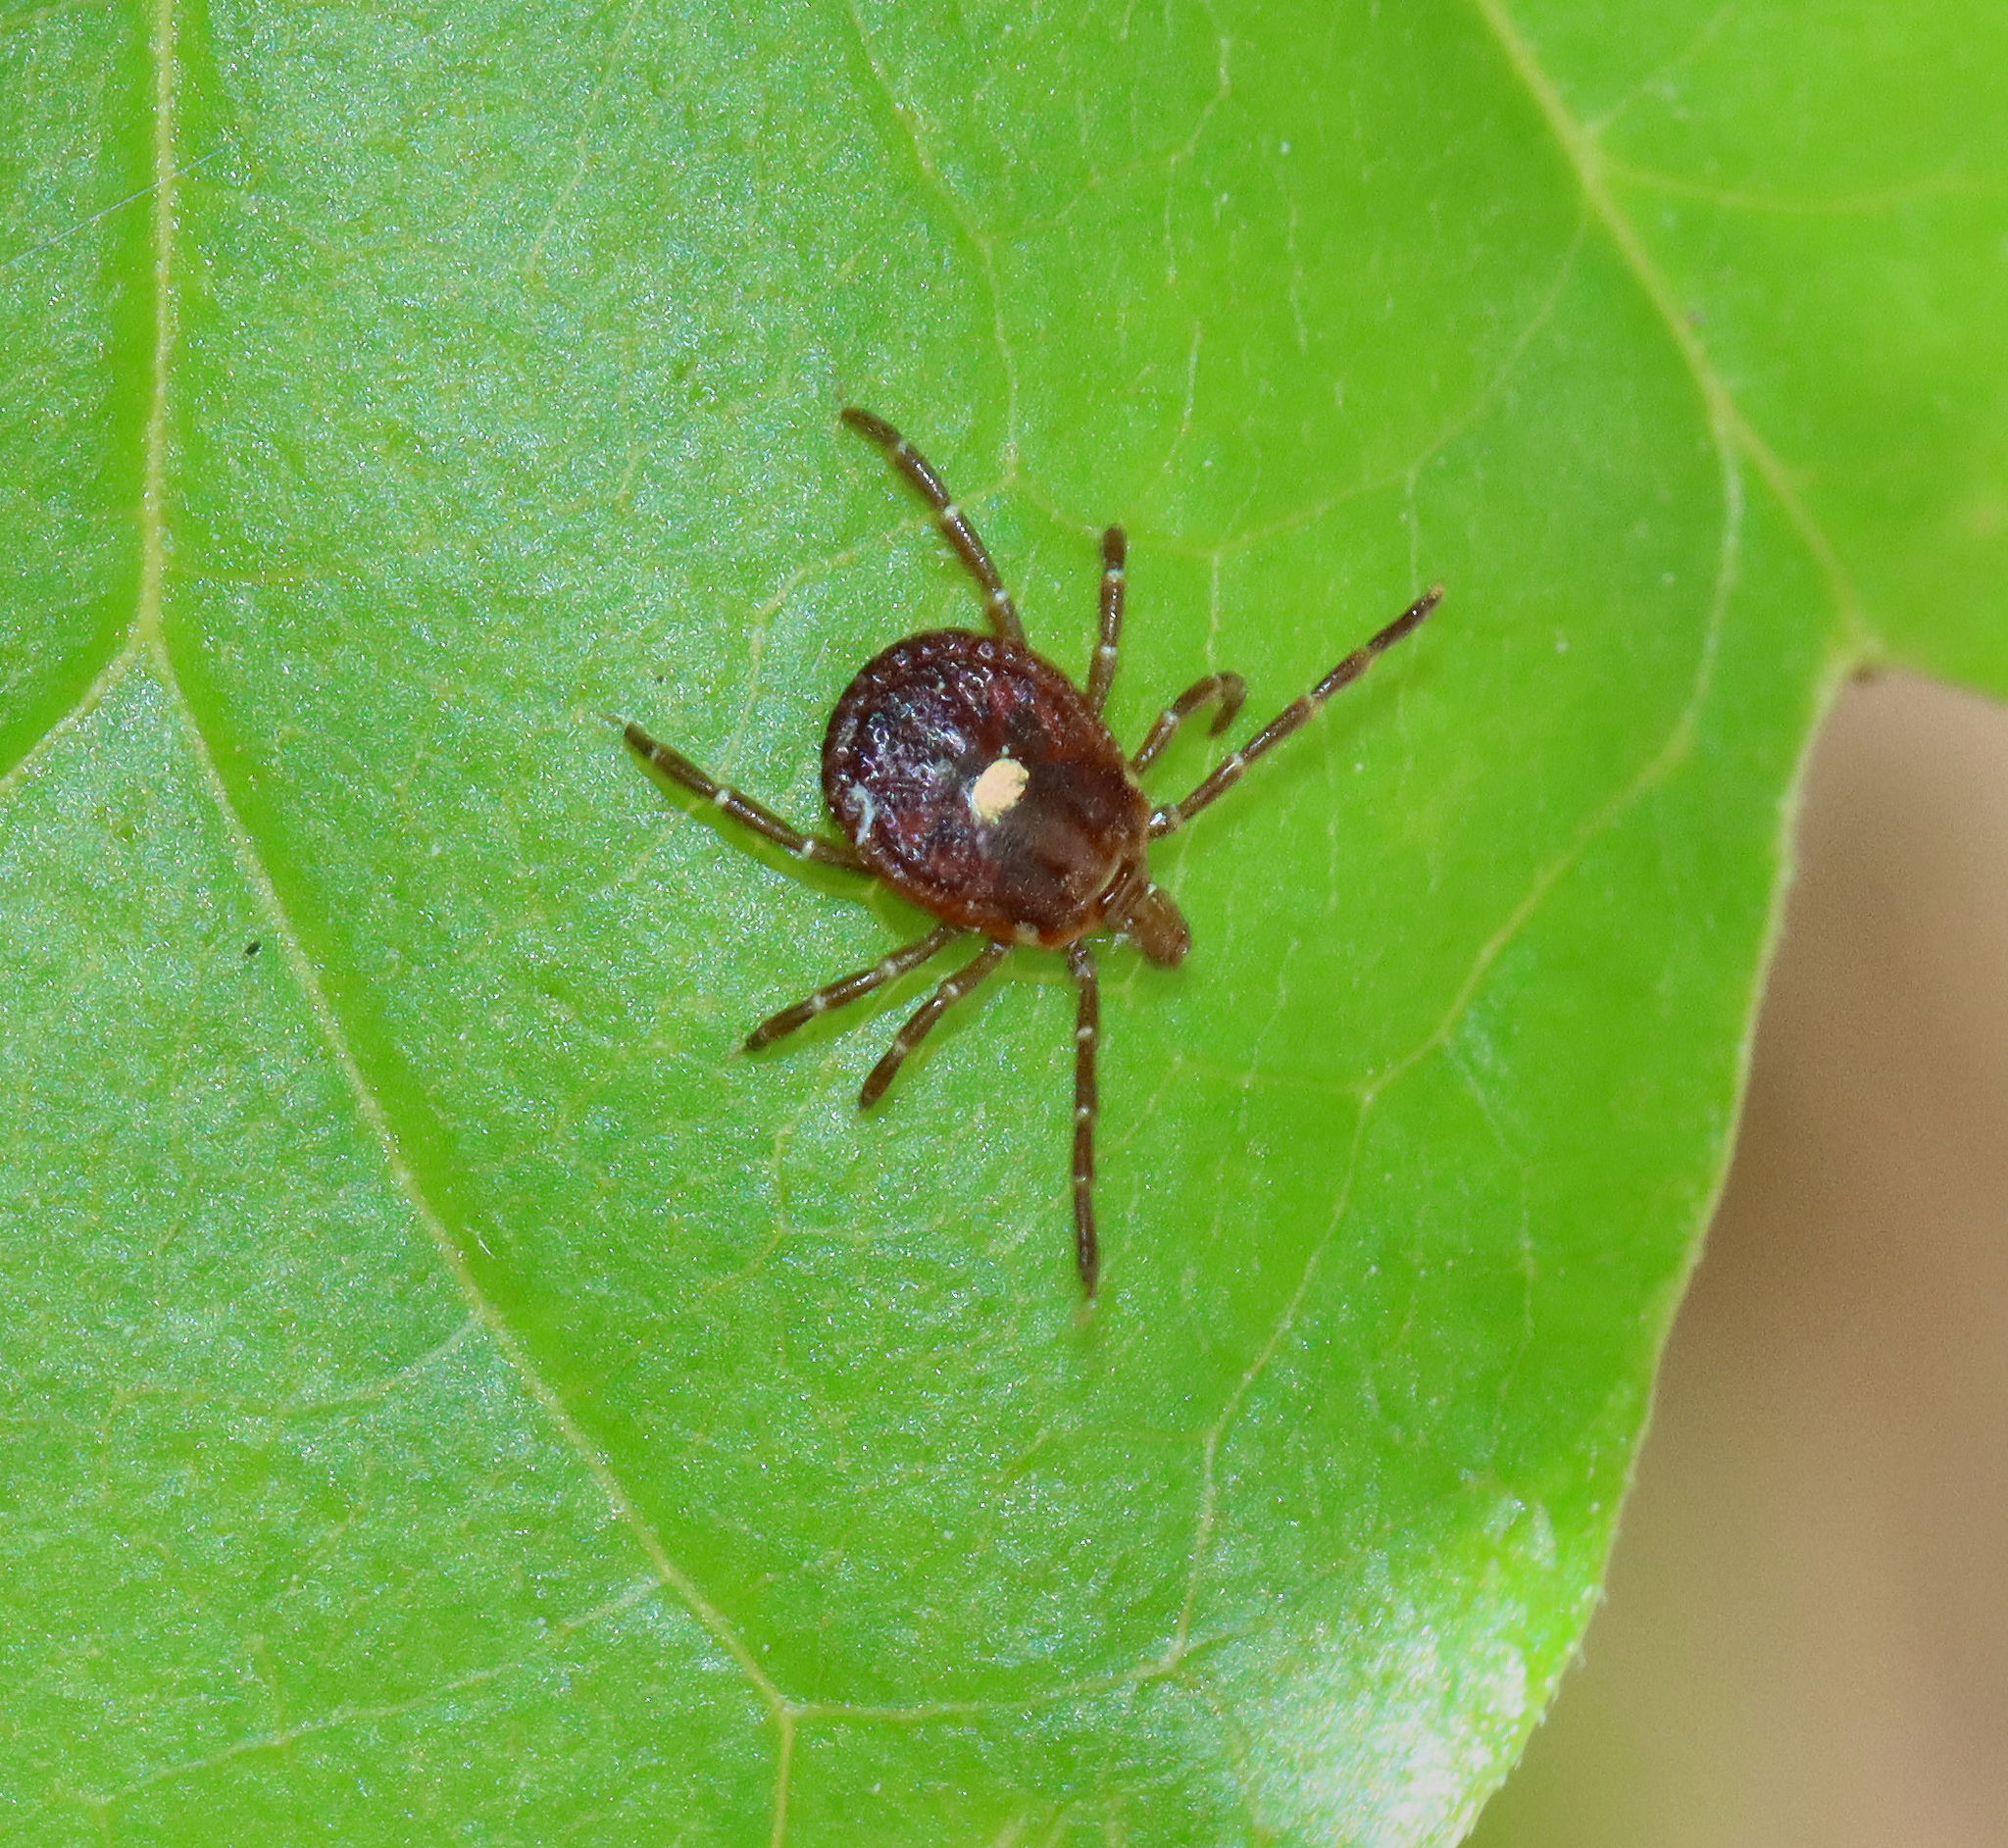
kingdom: Animalia
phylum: Arthropoda
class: Arachnida
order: Ixodida
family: Ixodidae
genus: Amblyomma
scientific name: Amblyomma americanum
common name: Lone star tick
